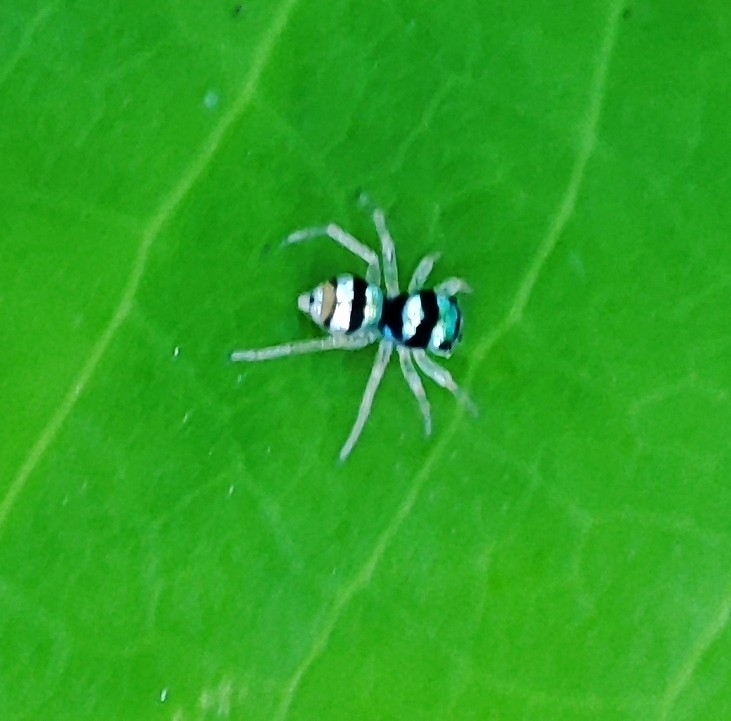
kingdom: Animalia
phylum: Arthropoda
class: Arachnida
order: Araneae
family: Salticidae
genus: Phintella
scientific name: Phintella vittata
